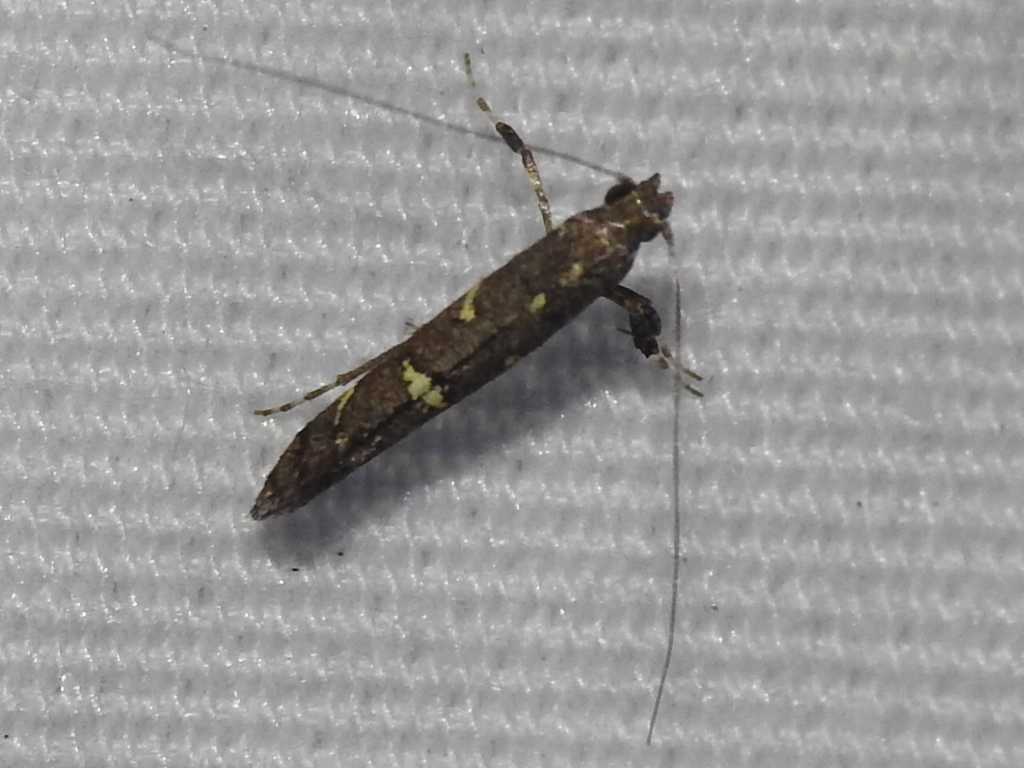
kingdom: Animalia
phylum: Arthropoda
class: Insecta
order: Lepidoptera
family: Gracillariidae
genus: Caloptilia
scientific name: Caloptilia triadicae
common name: Tallow leaf roller
